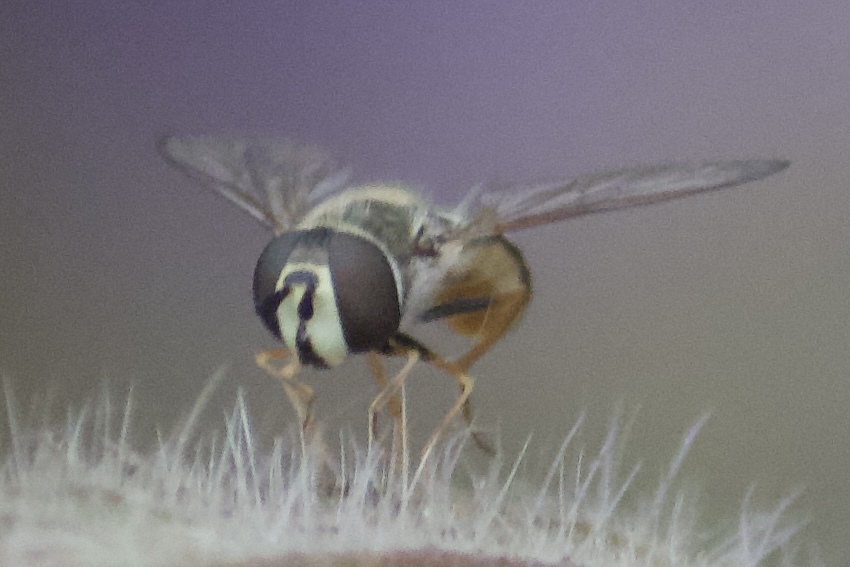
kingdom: Animalia
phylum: Arthropoda
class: Insecta
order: Diptera
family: Syrphidae
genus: Eupeodes
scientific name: Eupeodes volucris
